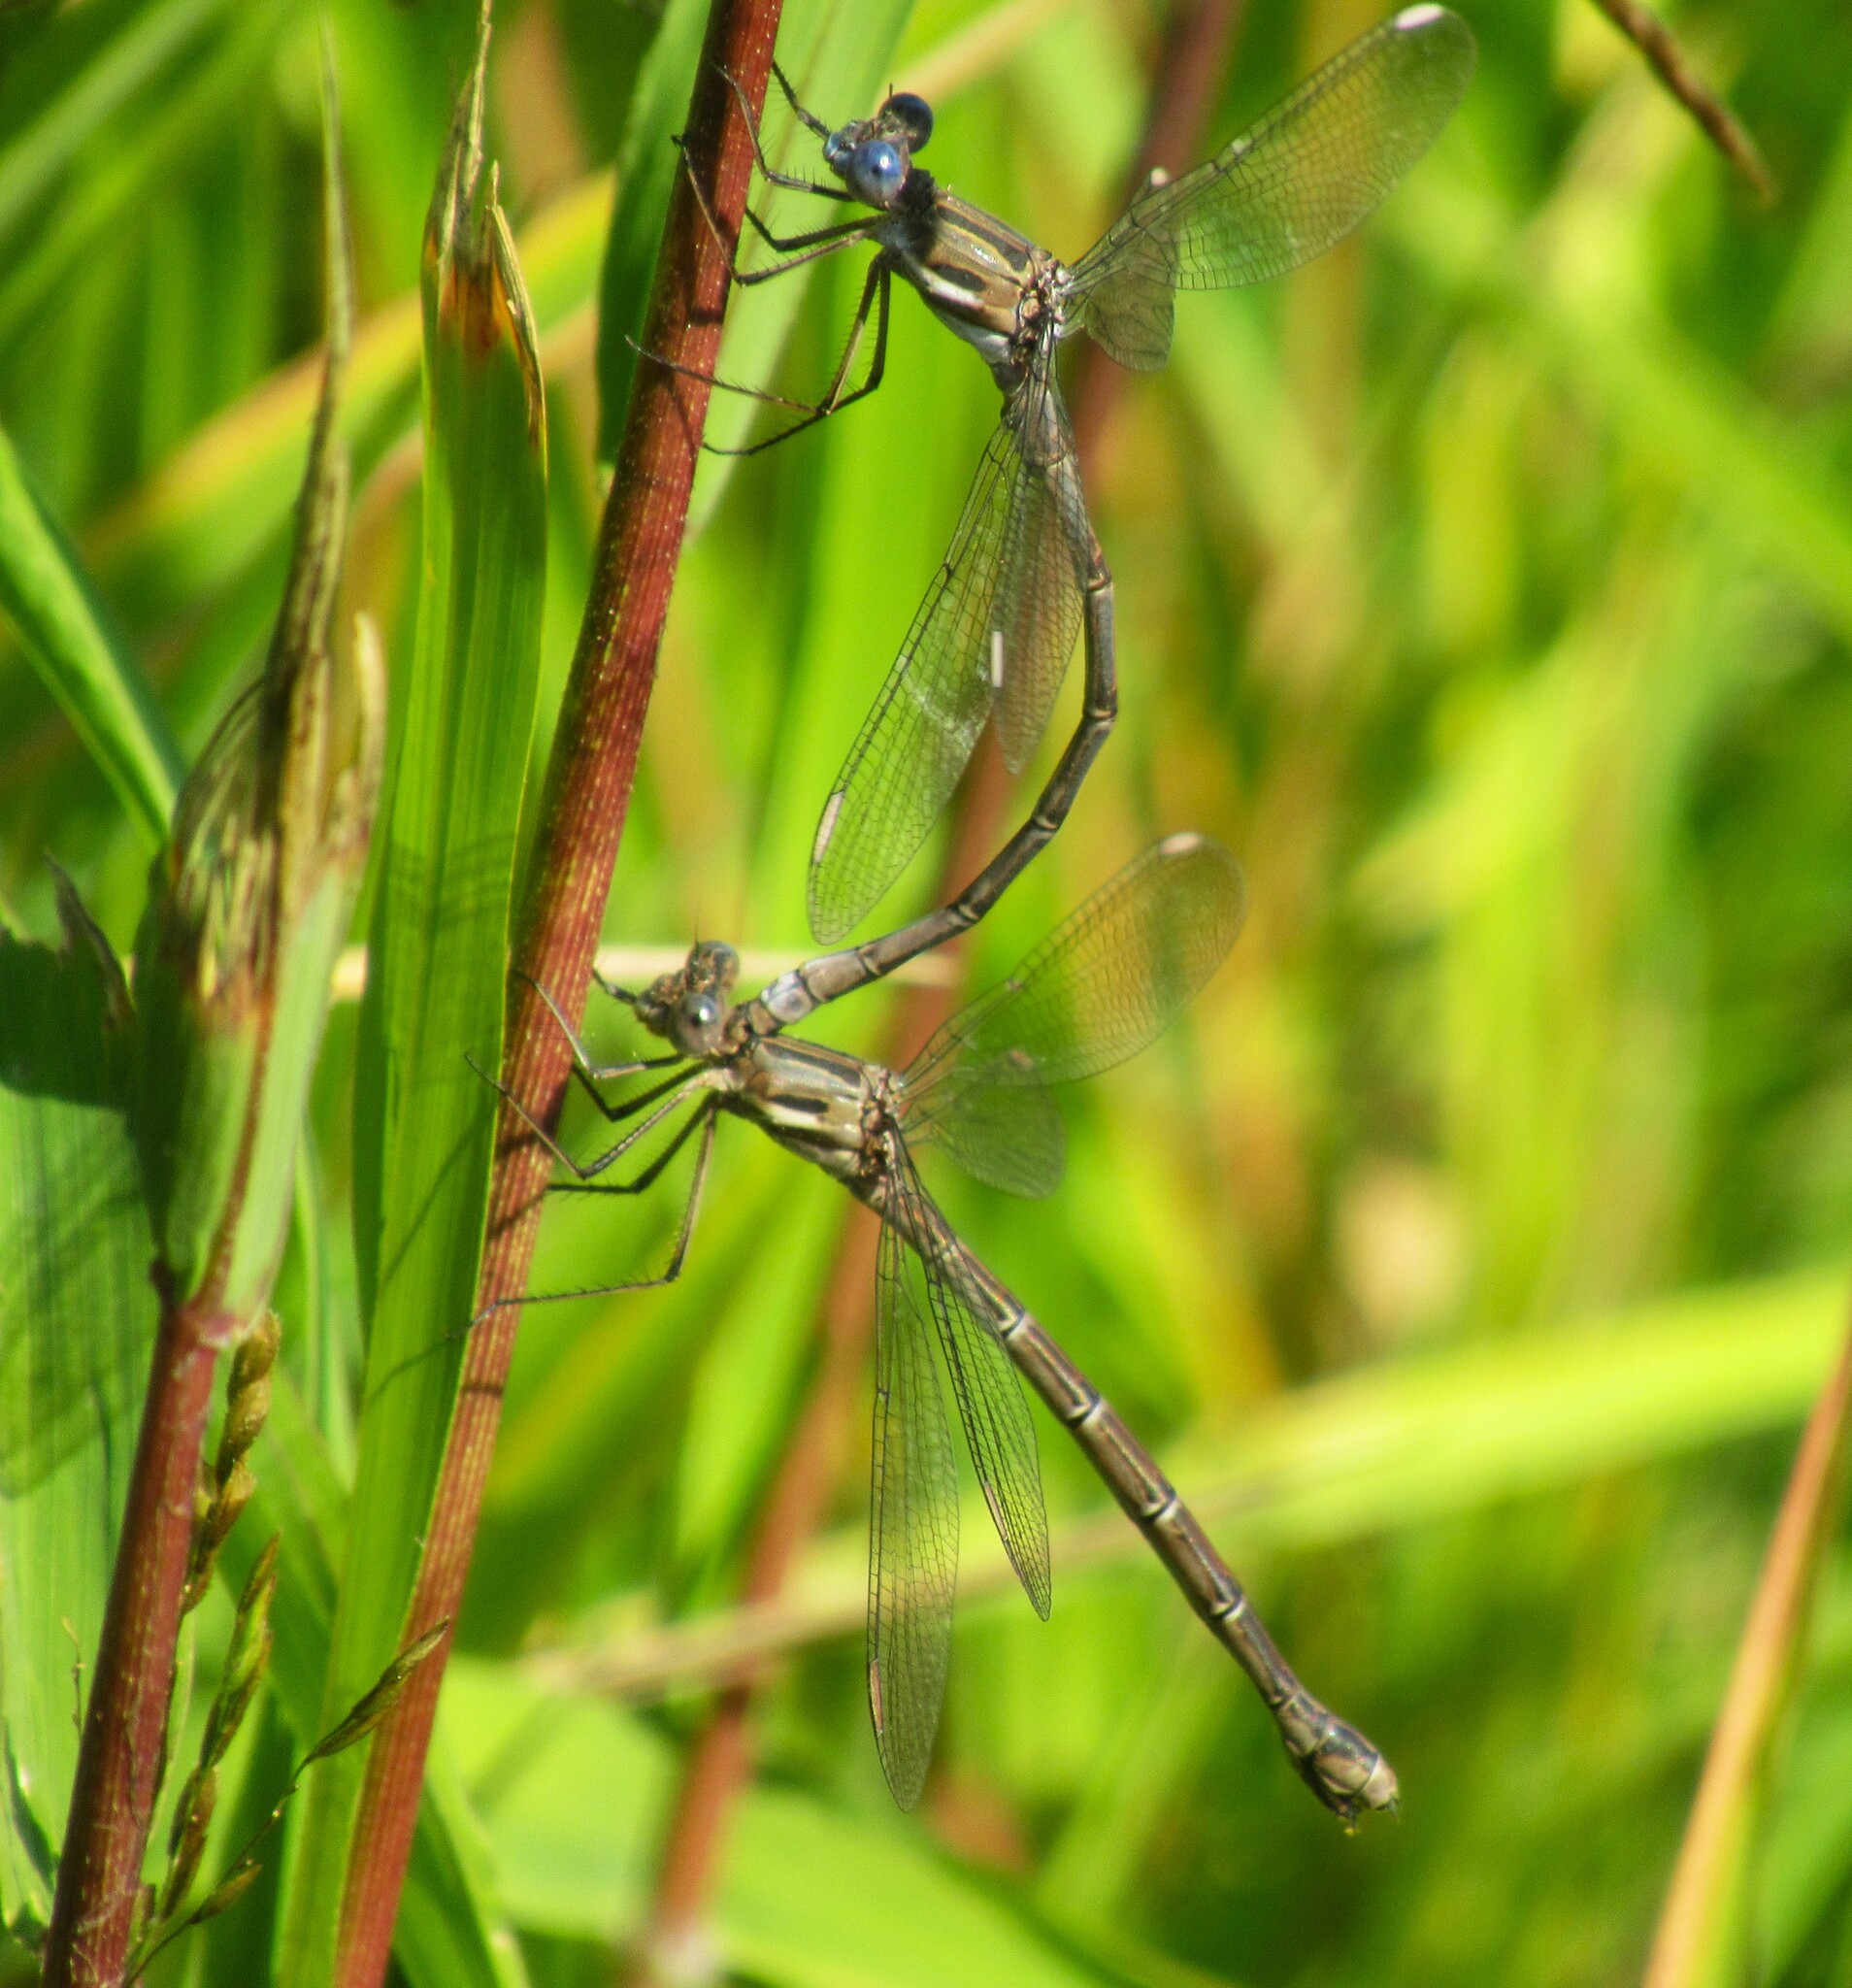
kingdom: Animalia
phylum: Arthropoda
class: Insecta
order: Odonata
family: Lestidae
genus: Archilestes
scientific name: Archilestes californicus
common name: California spreadwing
